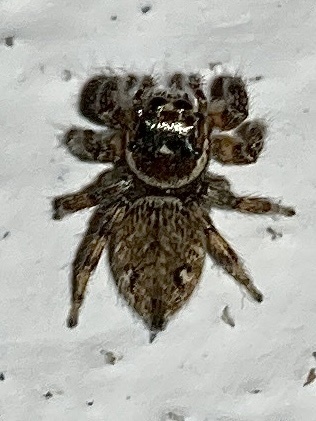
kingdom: Animalia
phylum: Arthropoda
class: Arachnida
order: Araneae
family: Salticidae
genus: Evarcha
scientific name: Evarcha jucunda
